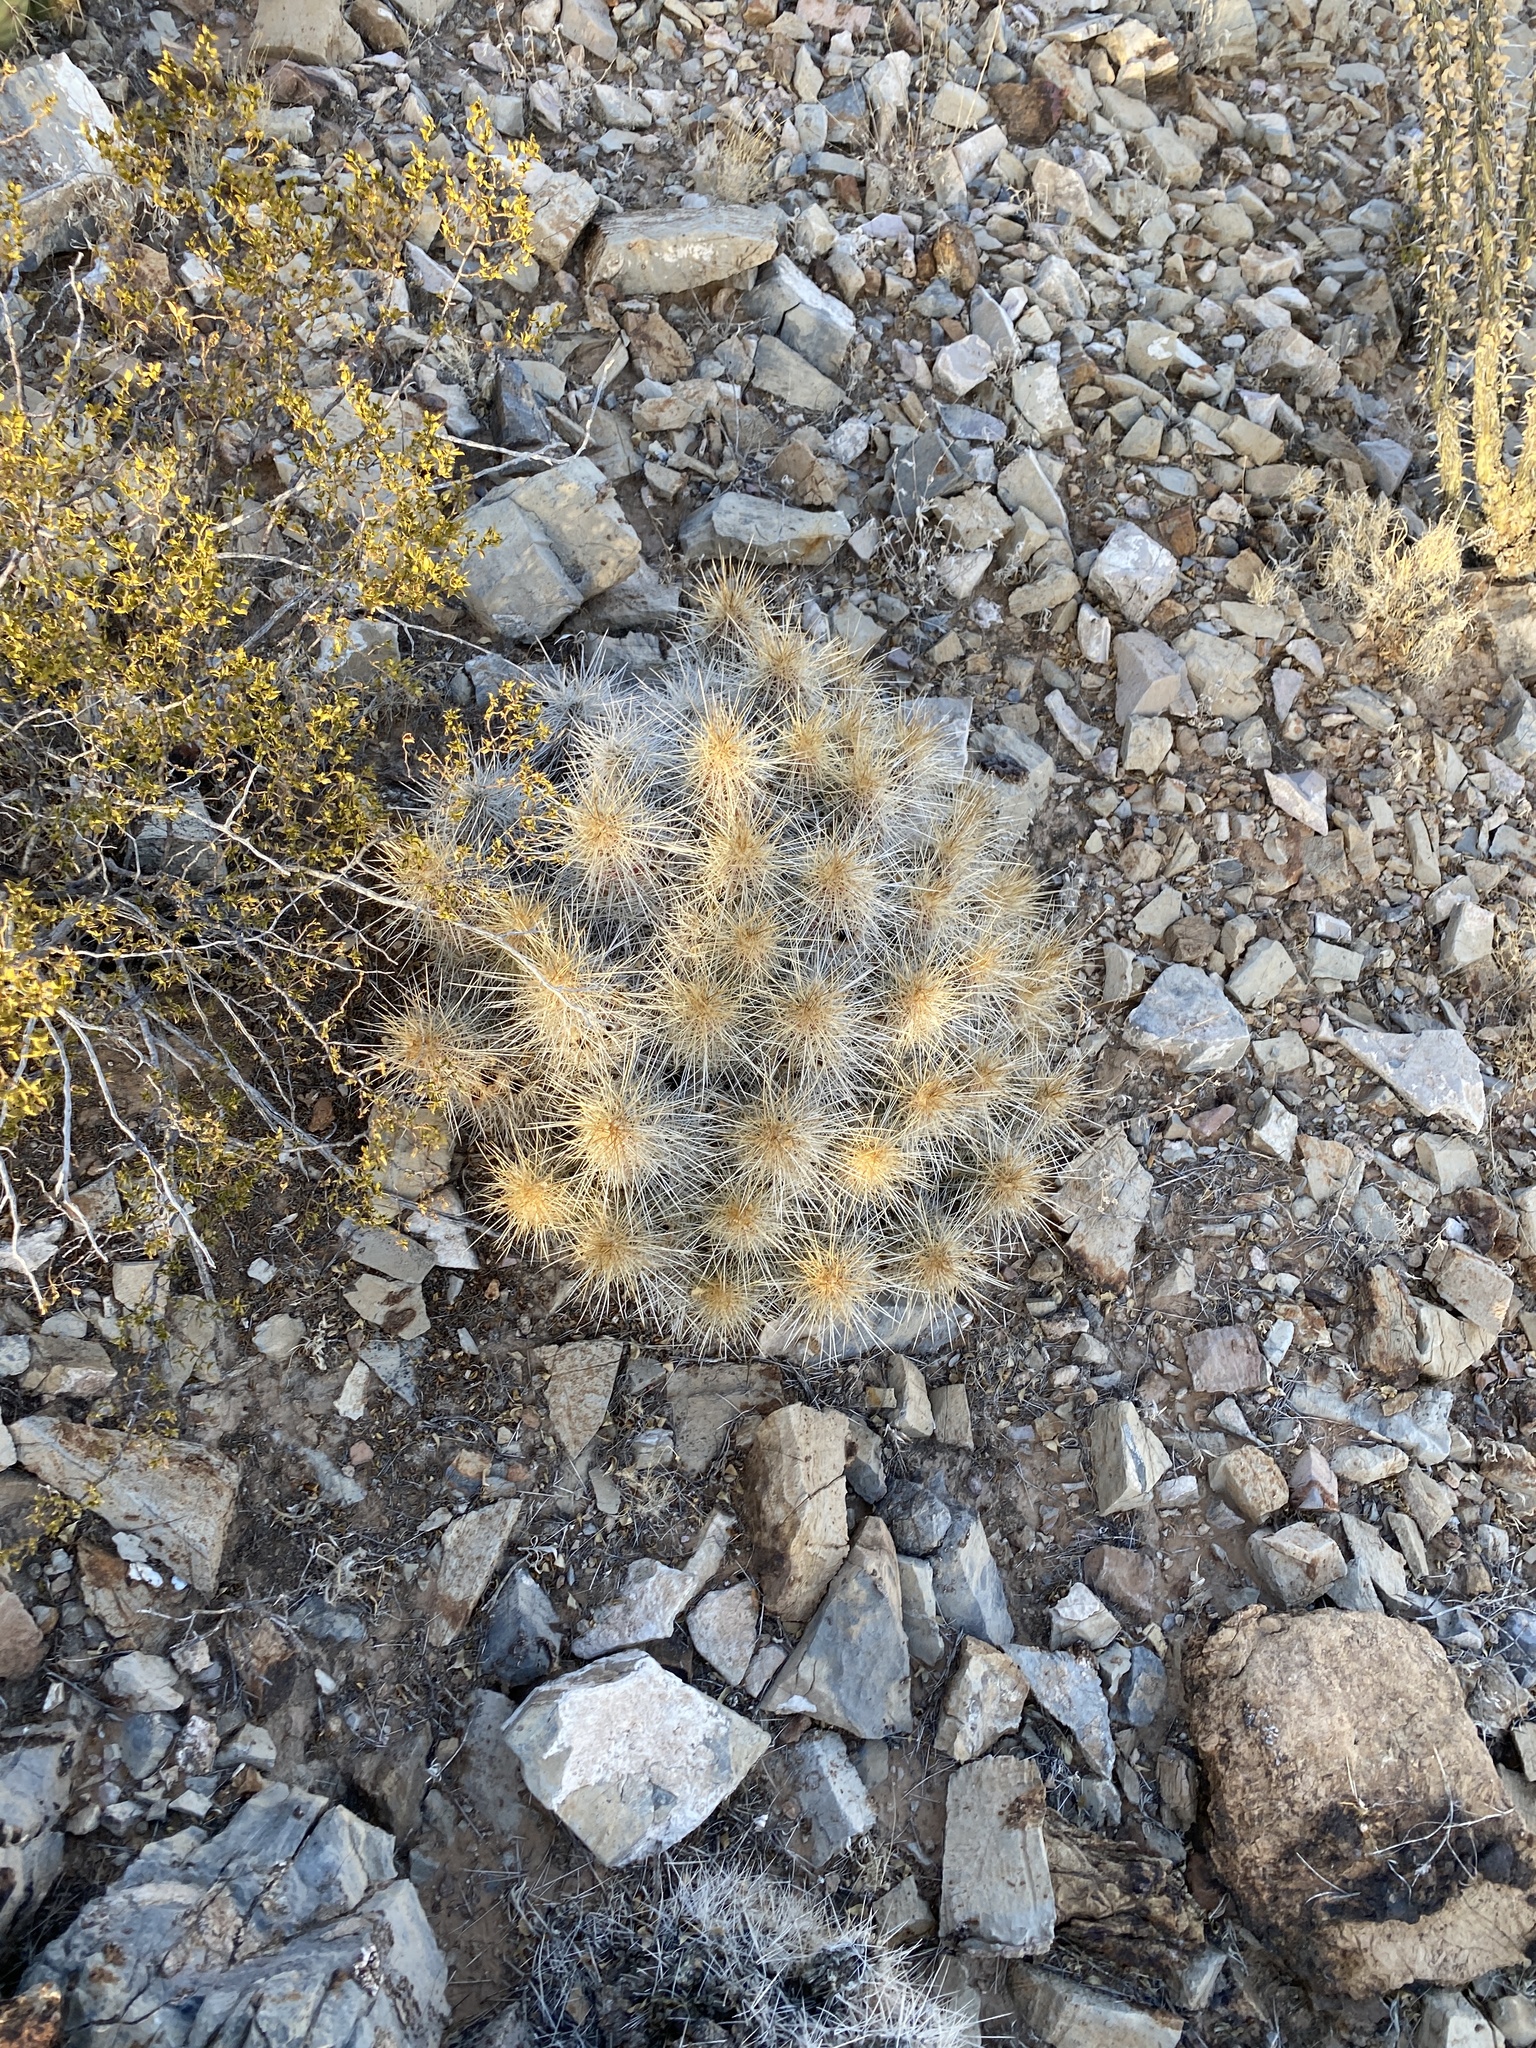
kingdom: Plantae
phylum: Tracheophyta
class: Magnoliopsida
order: Caryophyllales
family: Cactaceae
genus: Echinocereus
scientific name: Echinocereus stramineus
